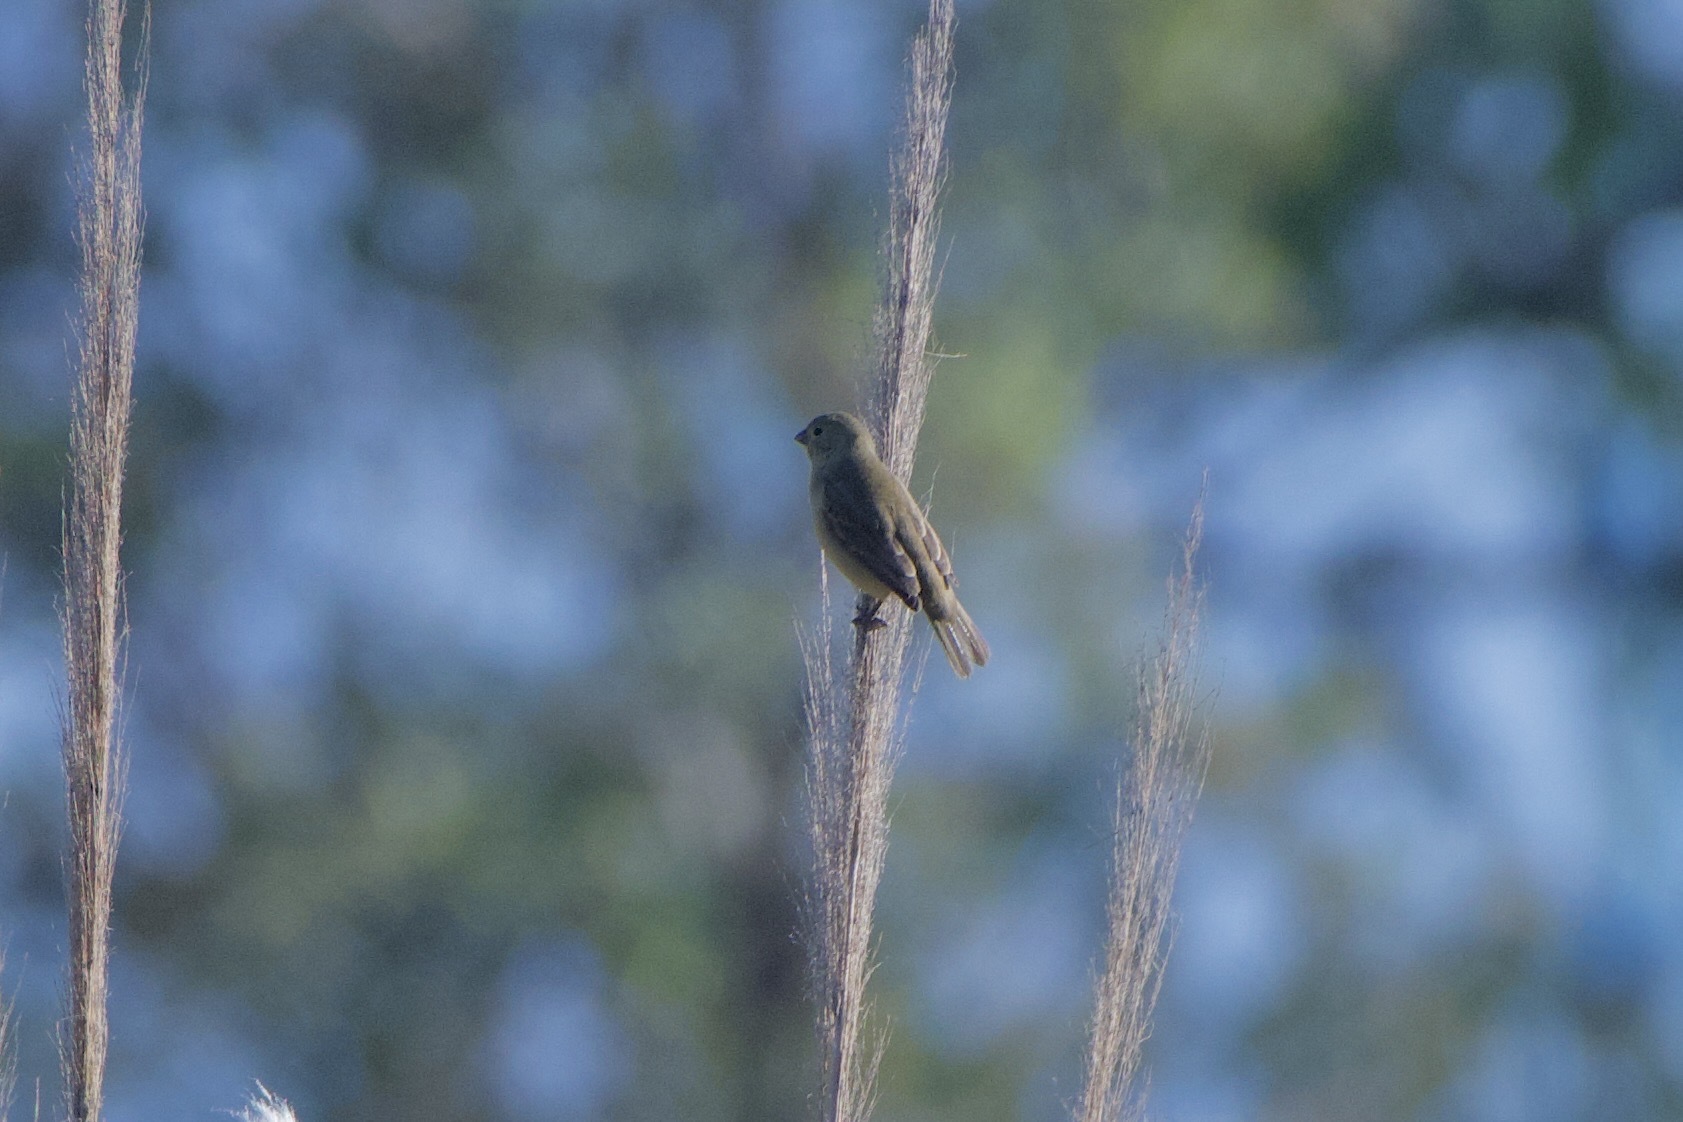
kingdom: Animalia
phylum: Chordata
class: Aves
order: Passeriformes
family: Thraupidae
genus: Sporophila
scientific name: Sporophila caerulescens
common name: Double-collared seedeater
